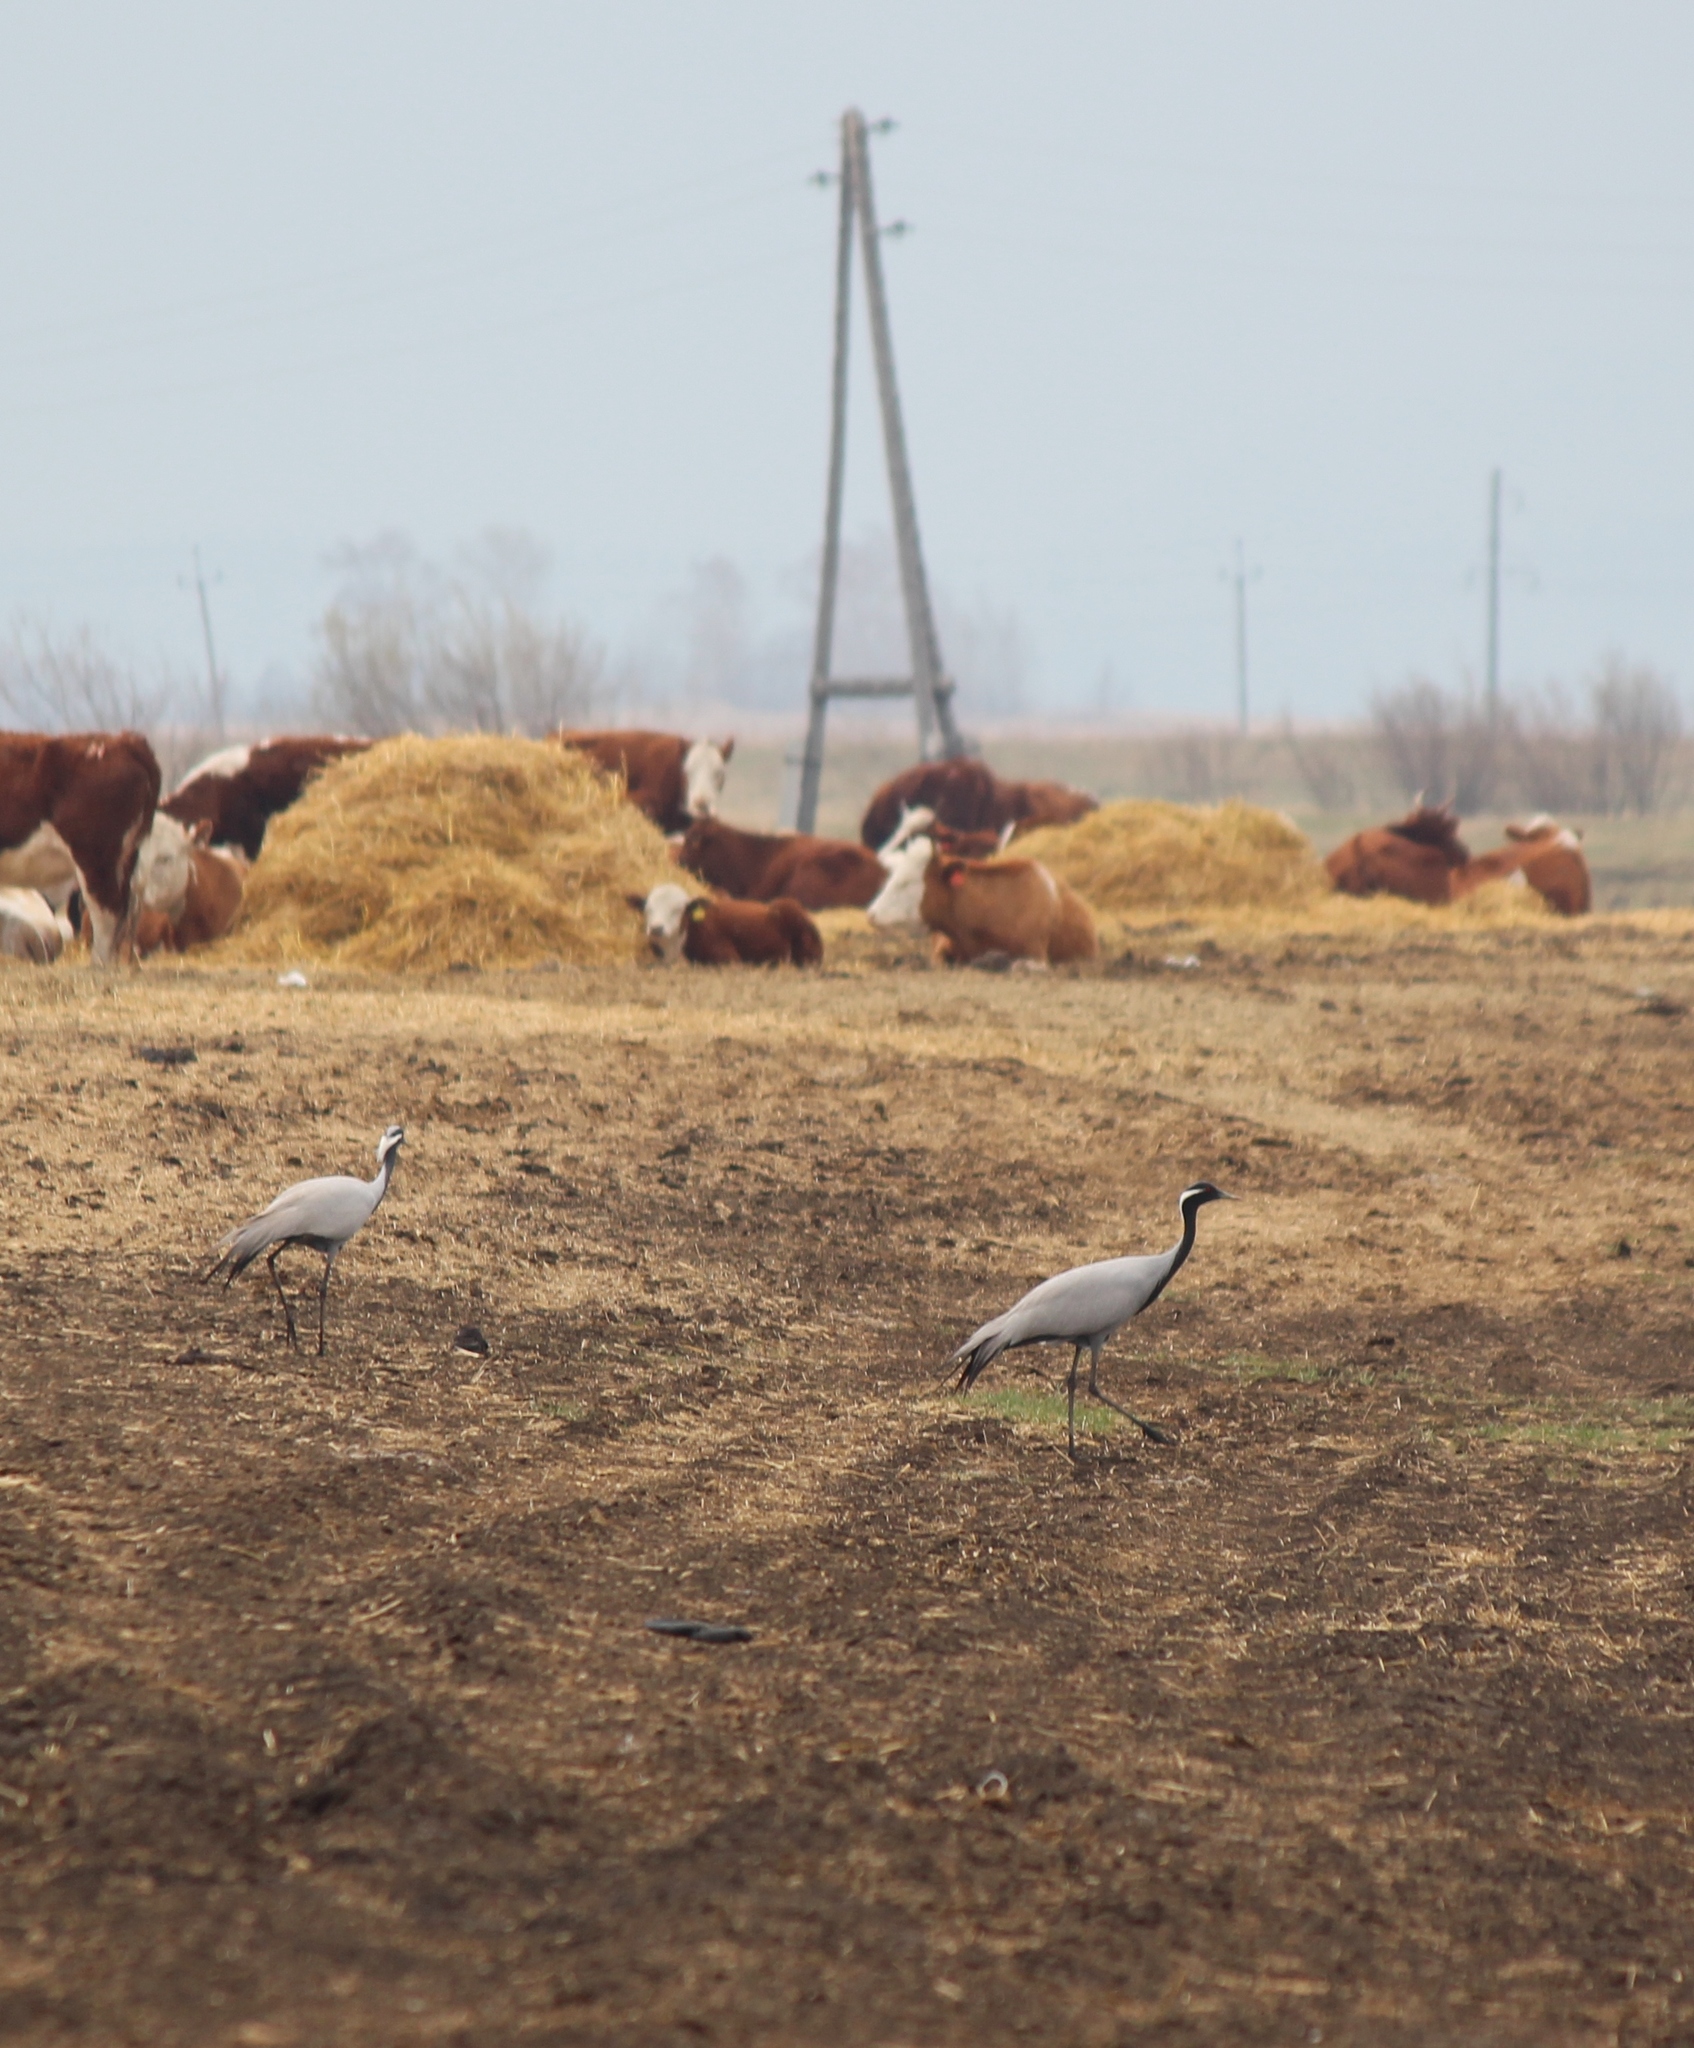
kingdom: Animalia
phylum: Chordata
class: Aves
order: Gruiformes
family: Gruidae
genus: Anthropoides
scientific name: Anthropoides virgo
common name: Demoiselle crane
